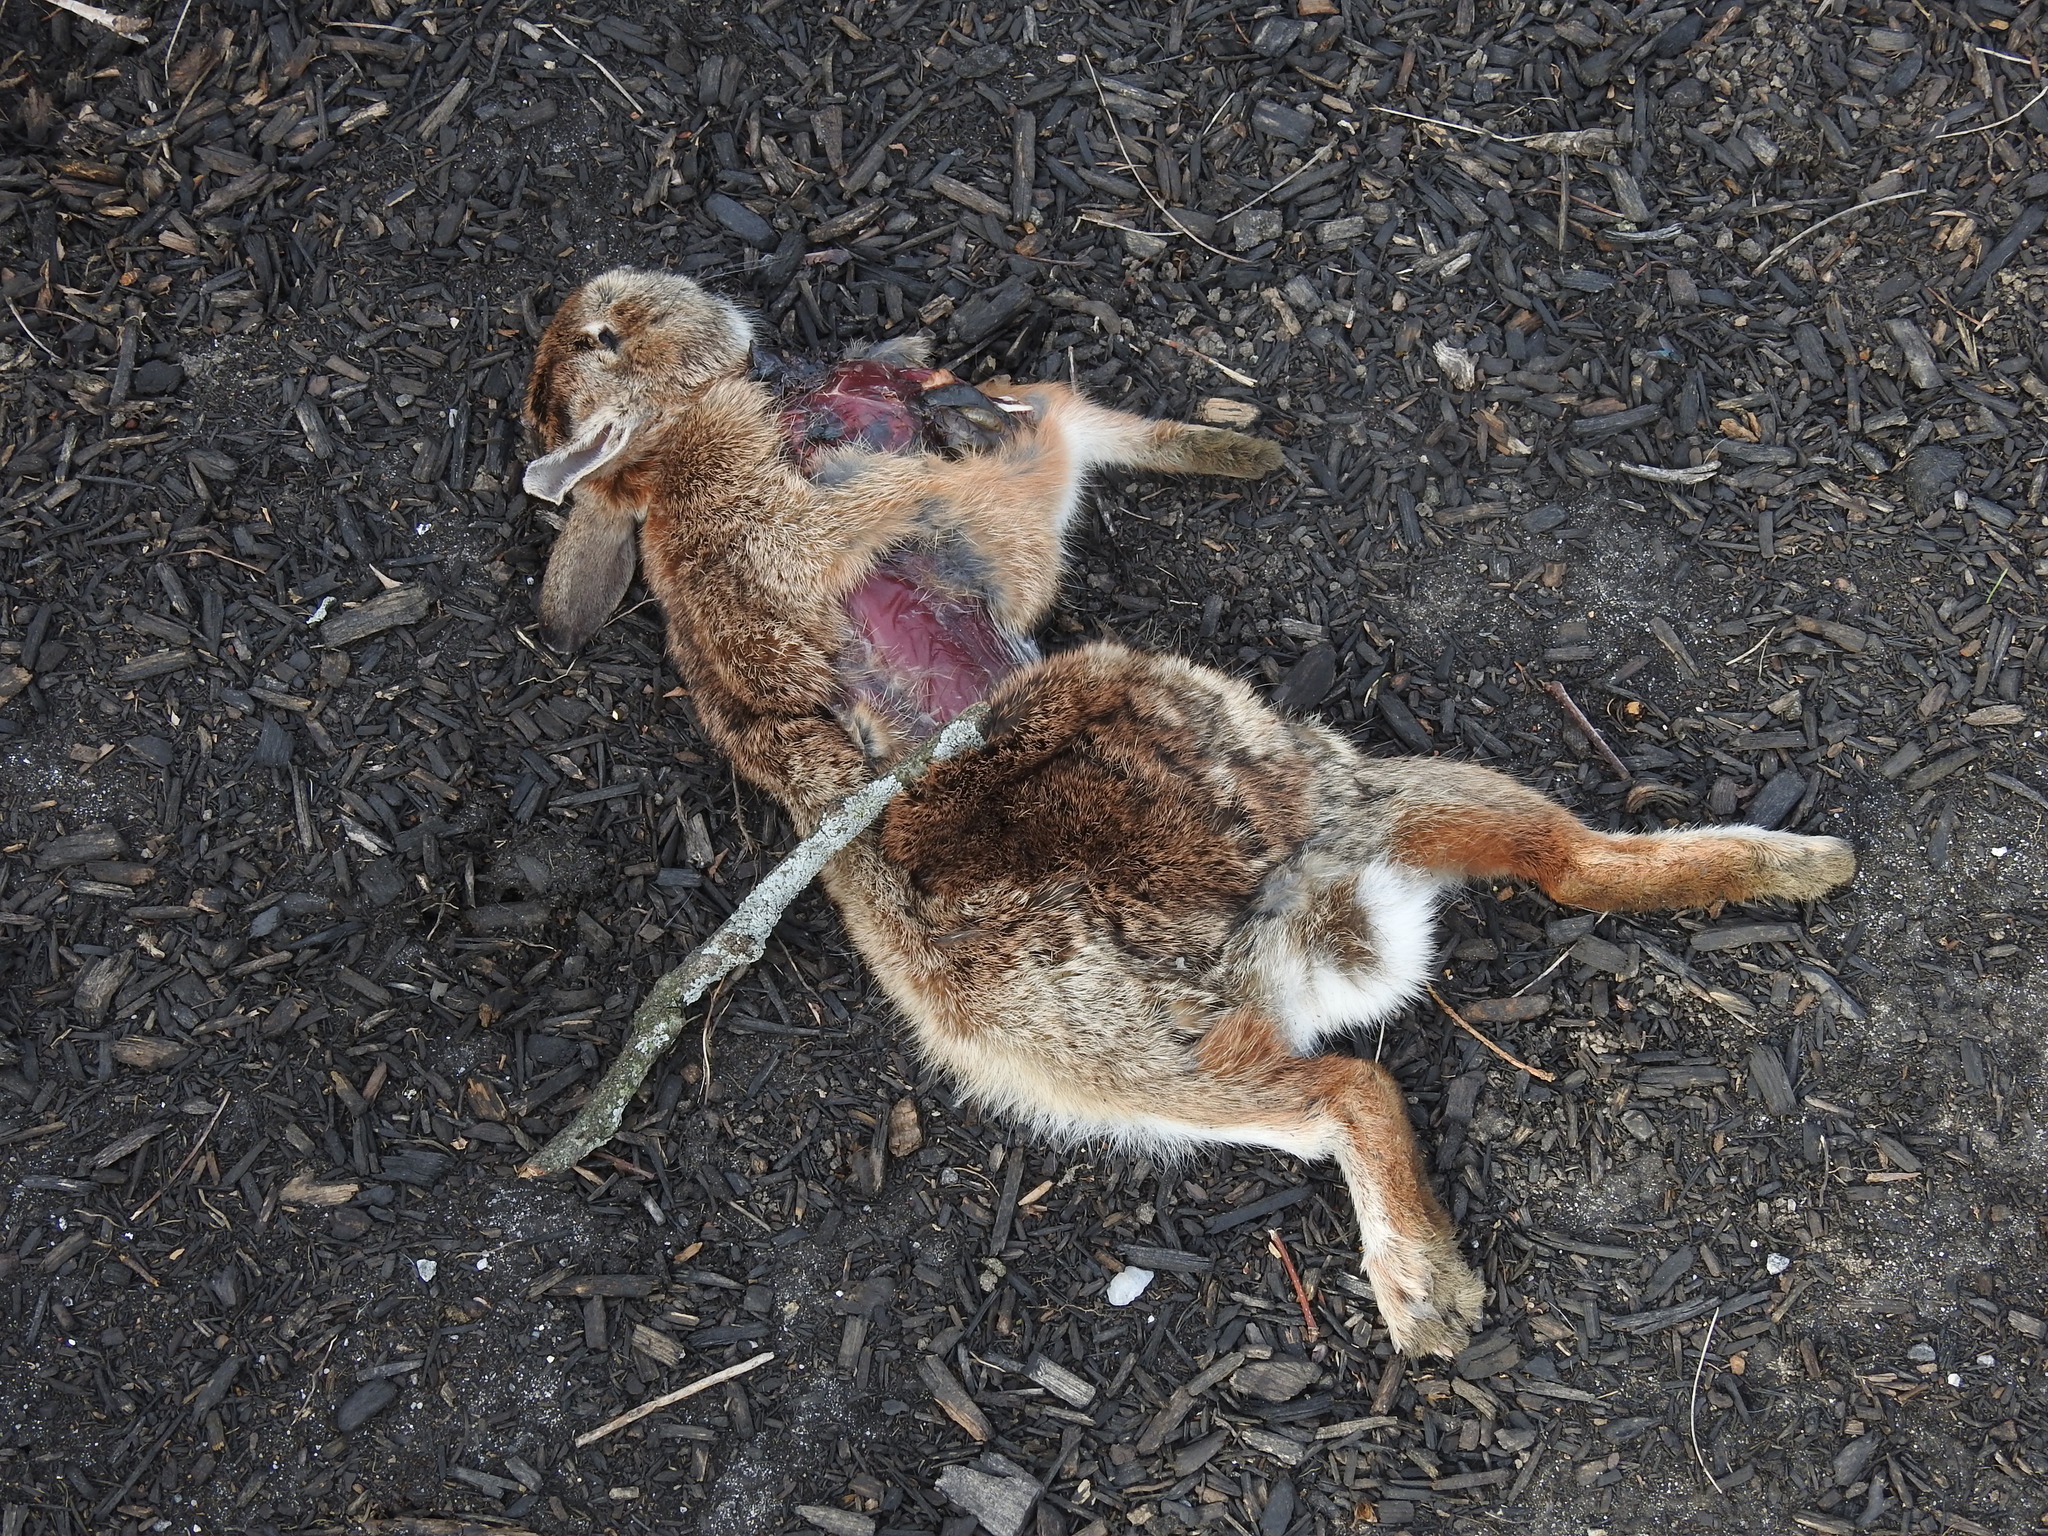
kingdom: Animalia
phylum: Chordata
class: Mammalia
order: Lagomorpha
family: Leporidae
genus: Sylvilagus
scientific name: Sylvilagus floridanus
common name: Eastern cottontail
